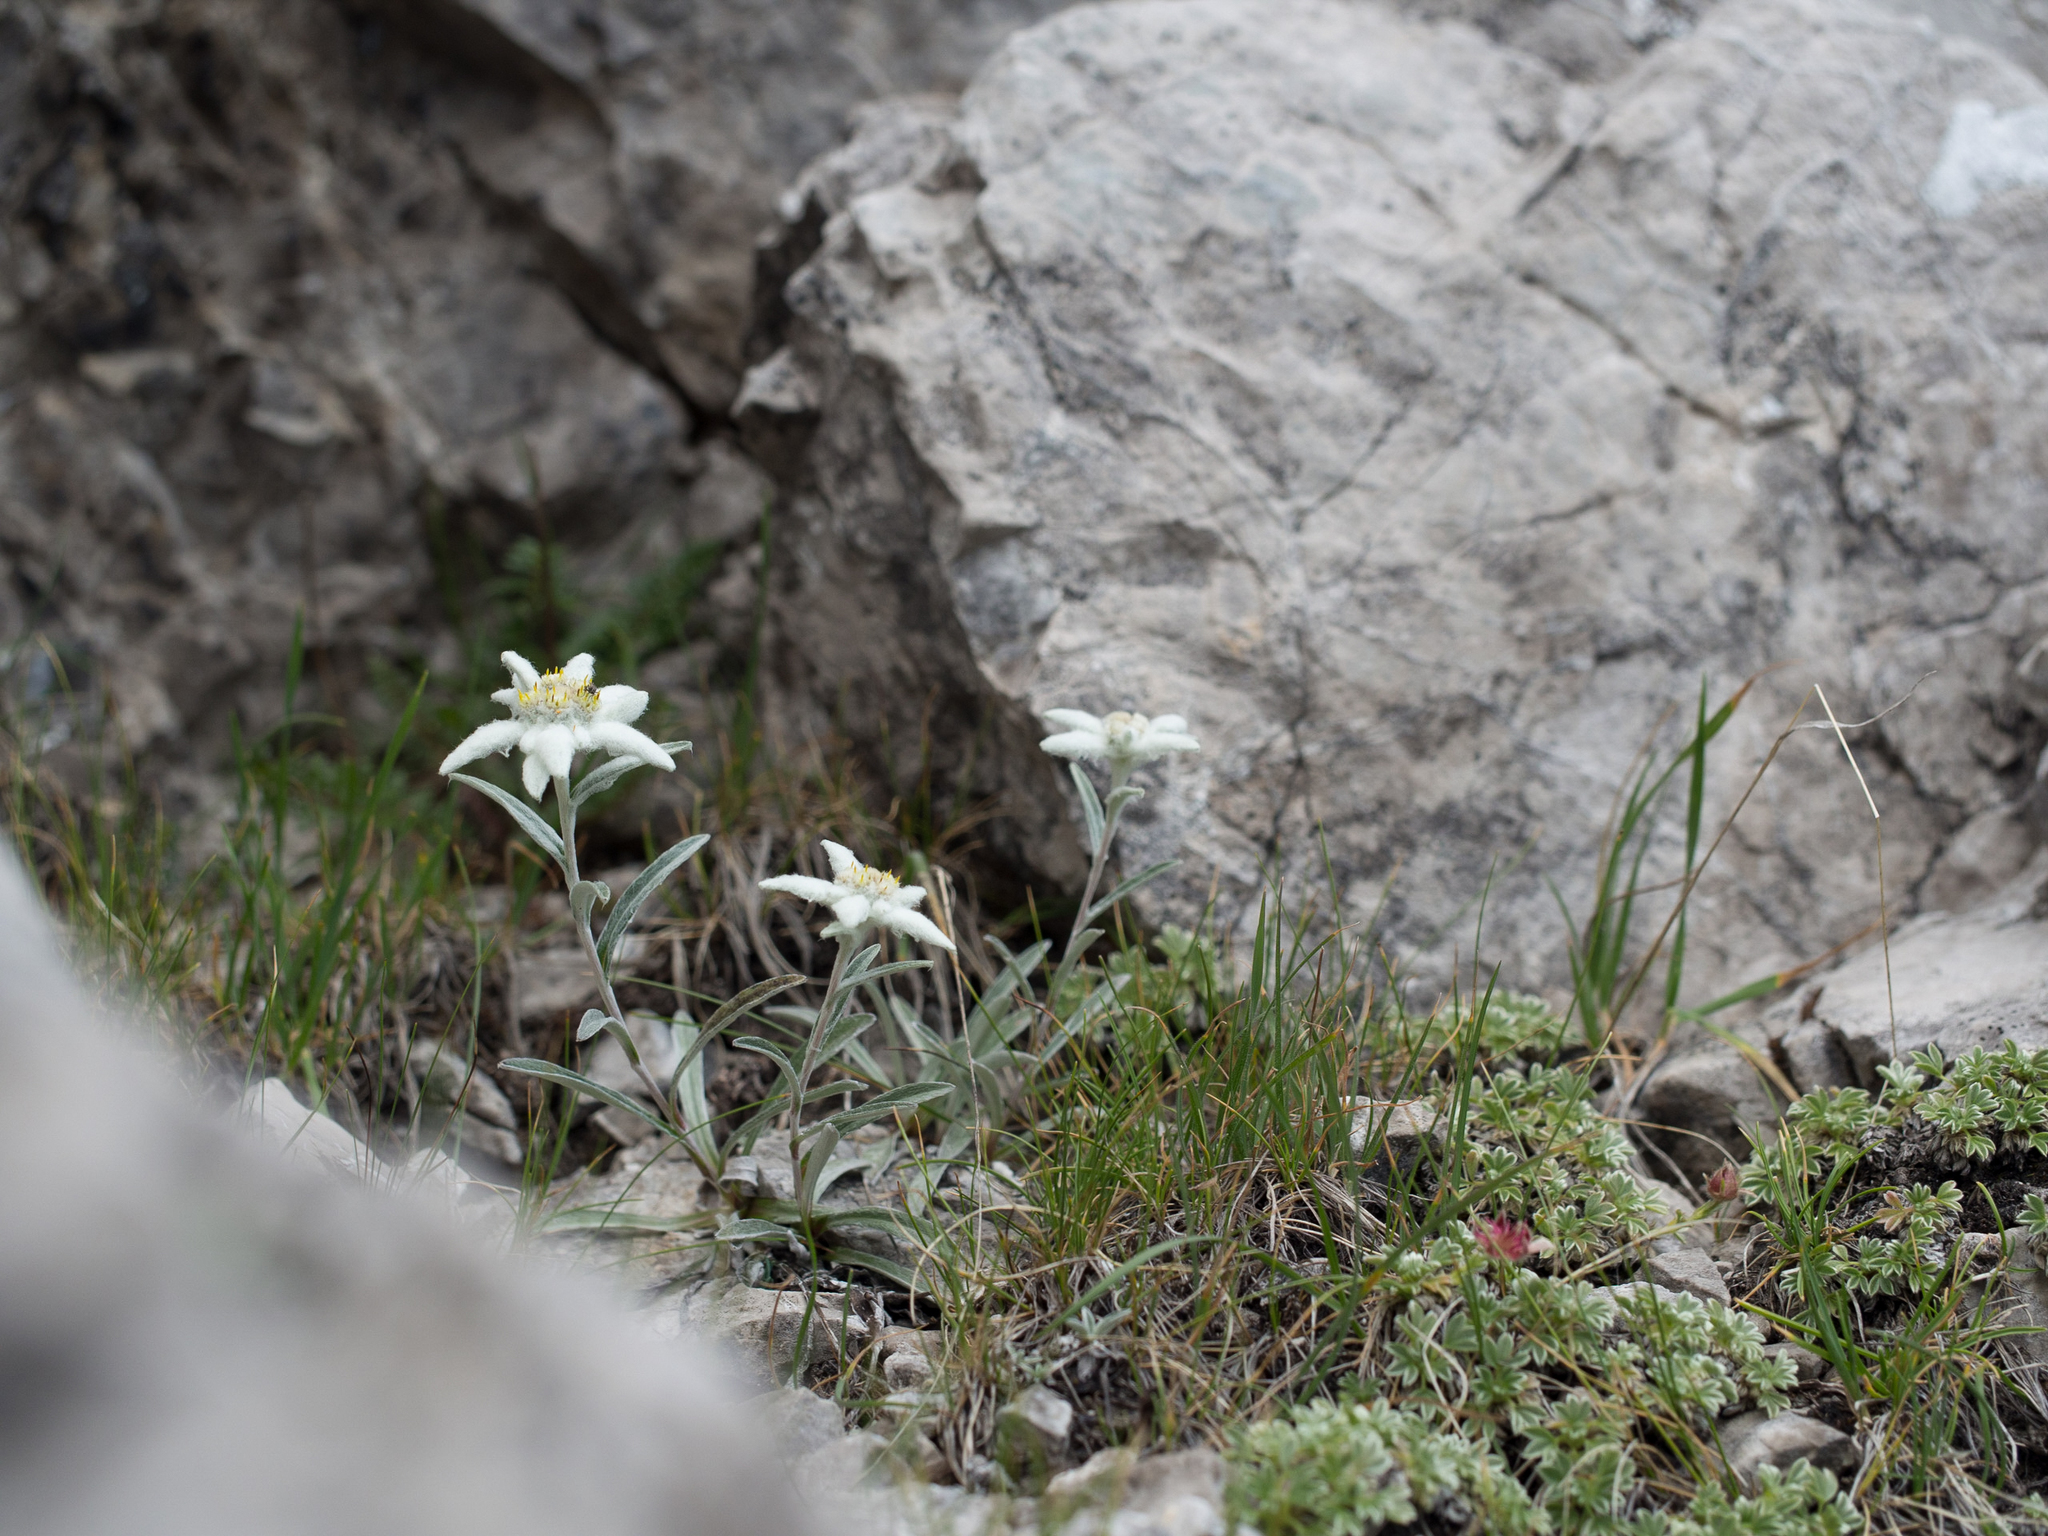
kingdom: Plantae
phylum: Tracheophyta
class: Magnoliopsida
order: Asterales
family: Asteraceae
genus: Leontopodium
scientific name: Leontopodium nivale
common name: Edelweiss
